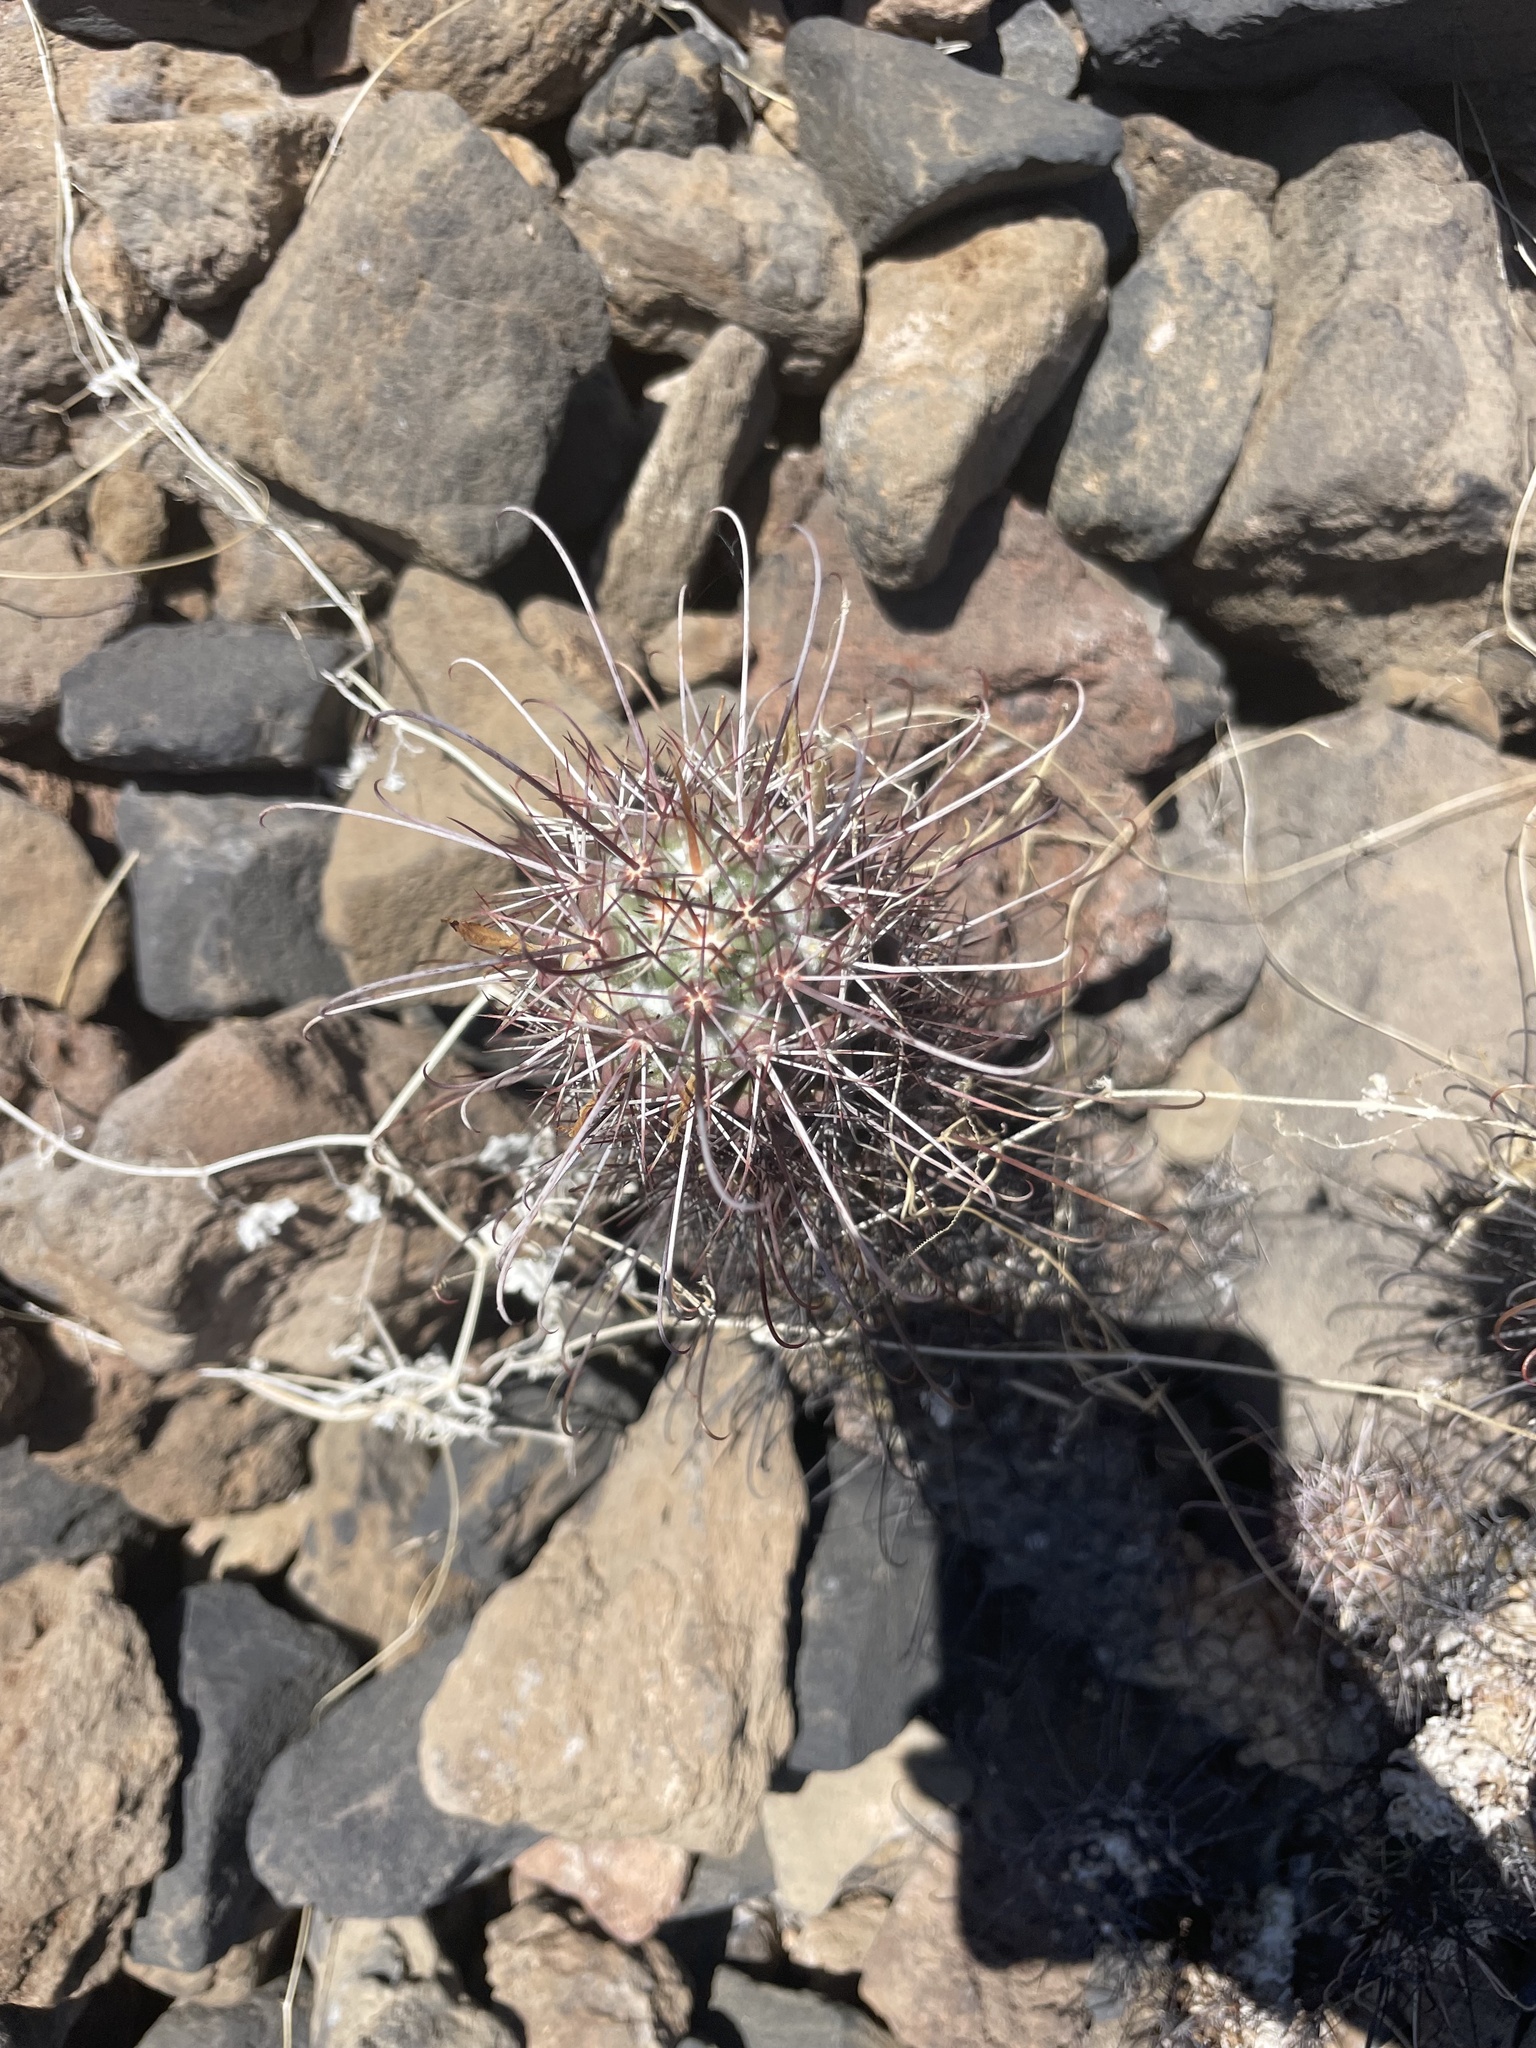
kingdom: Plantae
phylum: Tracheophyta
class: Magnoliopsida
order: Caryophyllales
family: Cactaceae
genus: Cochemiea
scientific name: Cochemiea poselgeri
